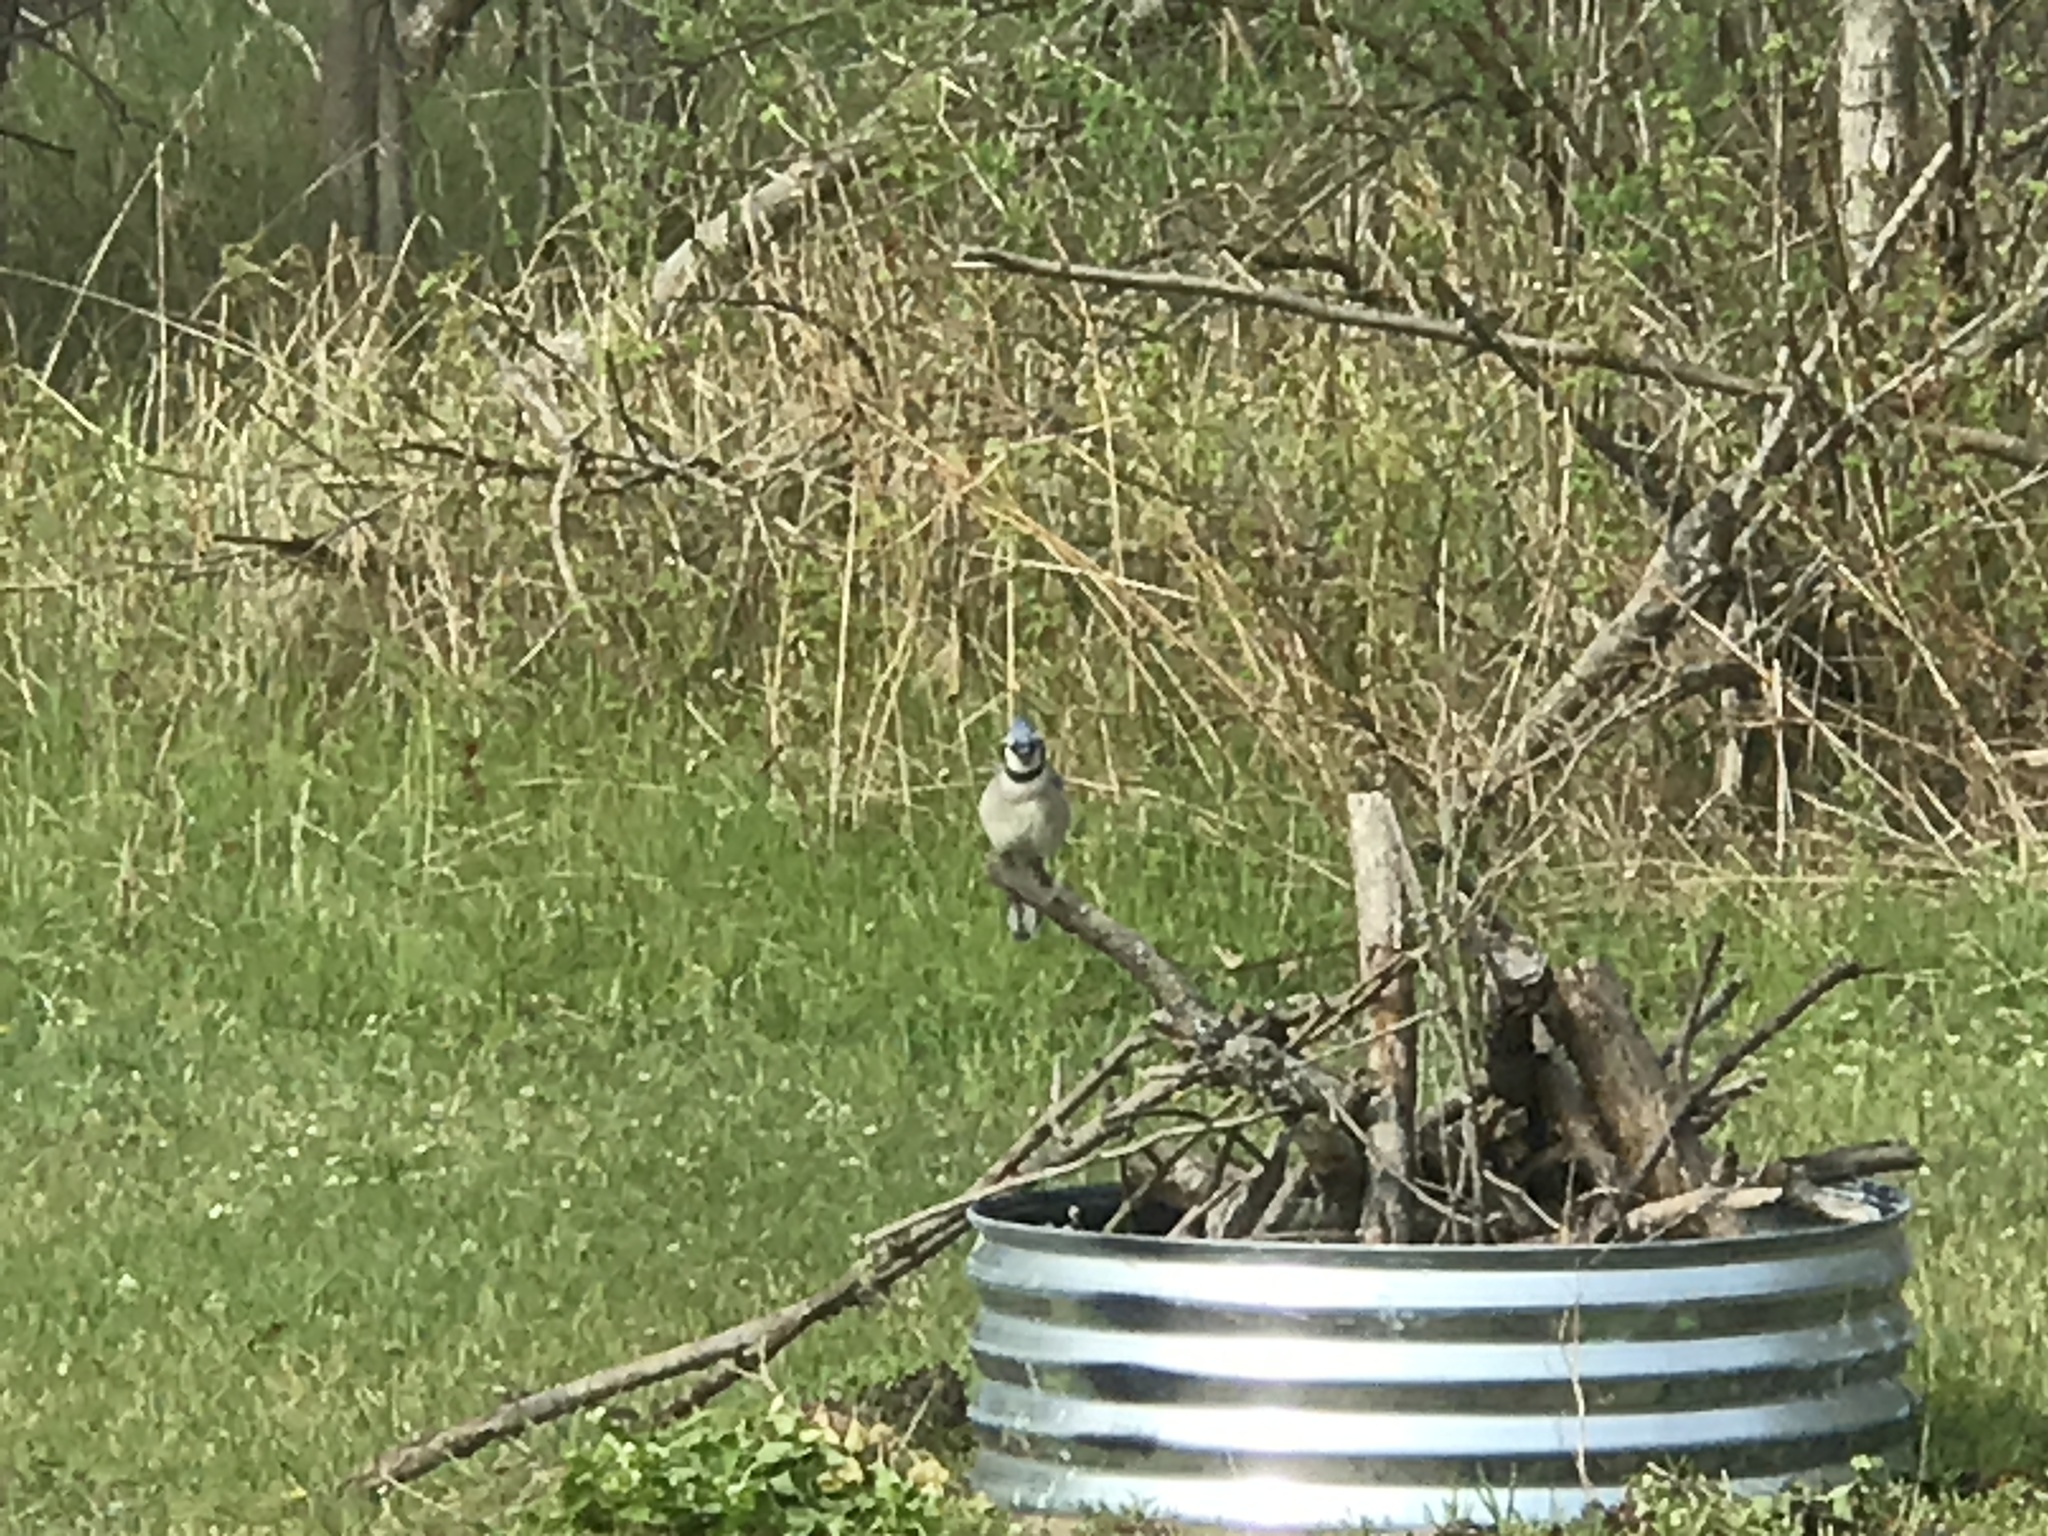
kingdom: Animalia
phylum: Chordata
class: Aves
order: Passeriformes
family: Corvidae
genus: Cyanocitta
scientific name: Cyanocitta cristata
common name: Blue jay
